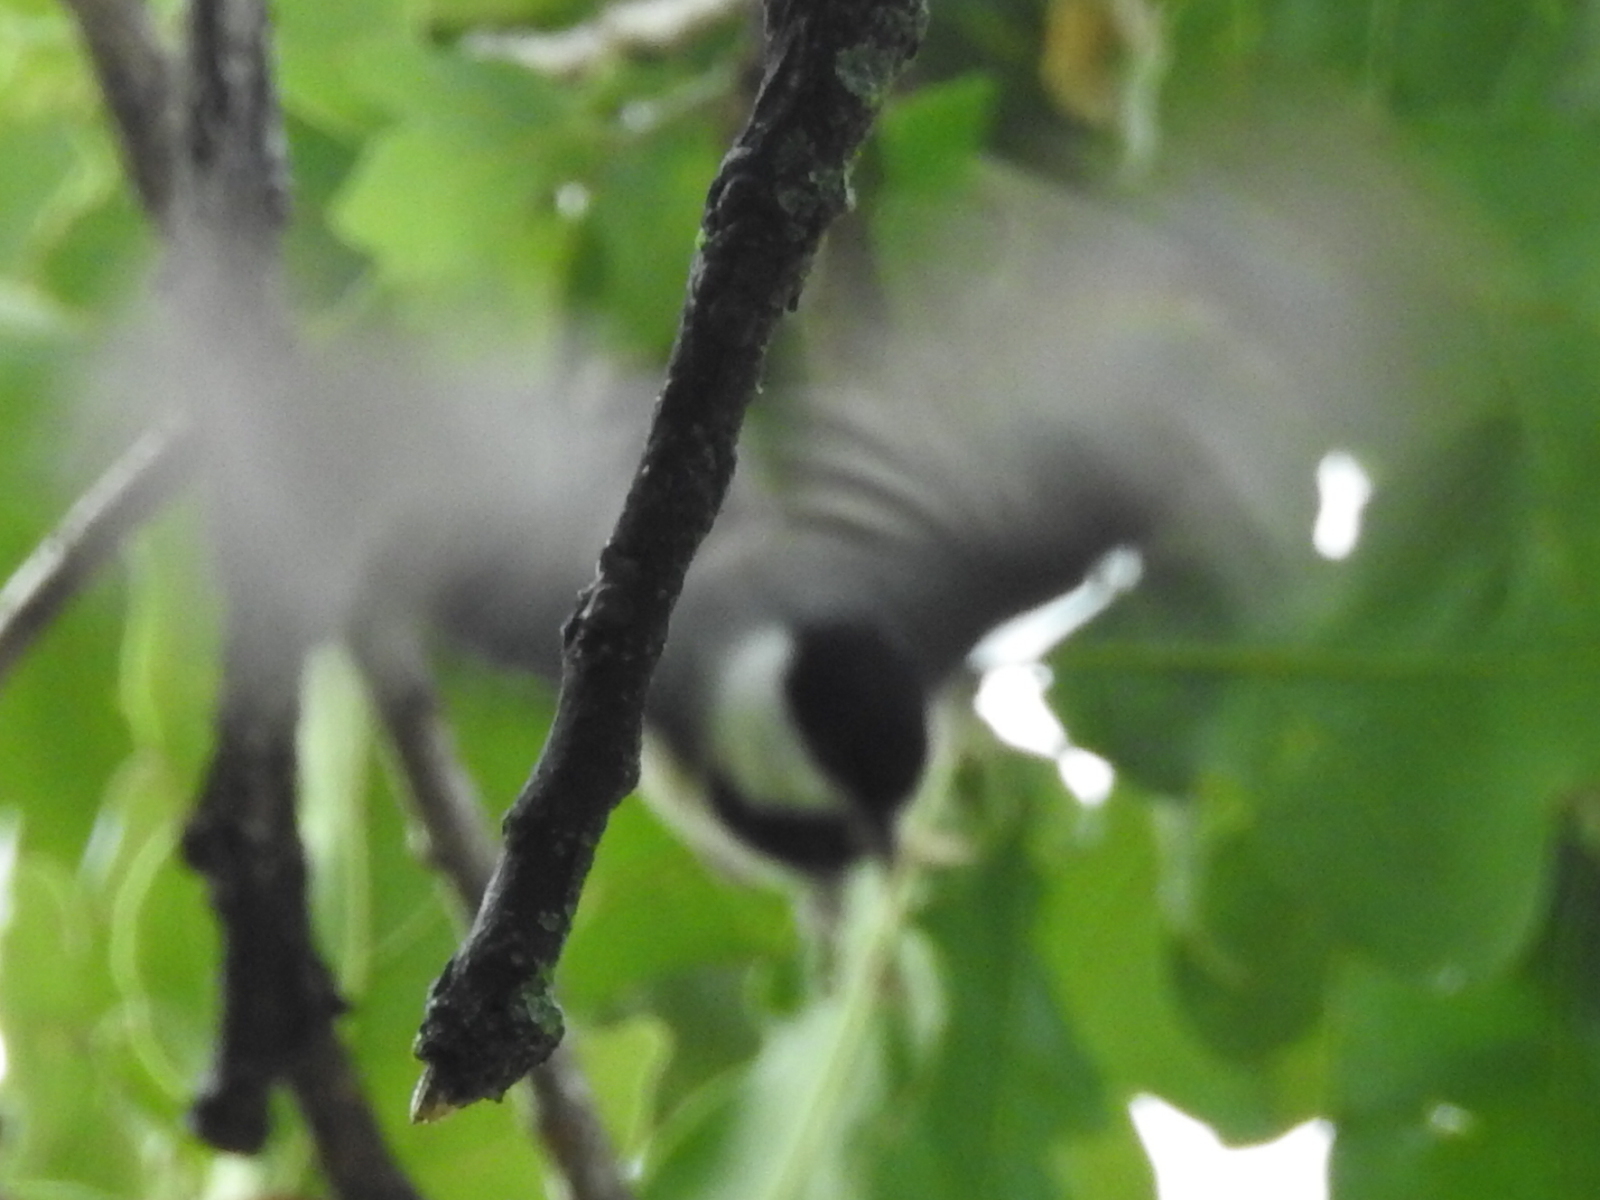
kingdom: Animalia
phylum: Chordata
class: Aves
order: Passeriformes
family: Paridae
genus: Poecile
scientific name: Poecile carolinensis
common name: Carolina chickadee
